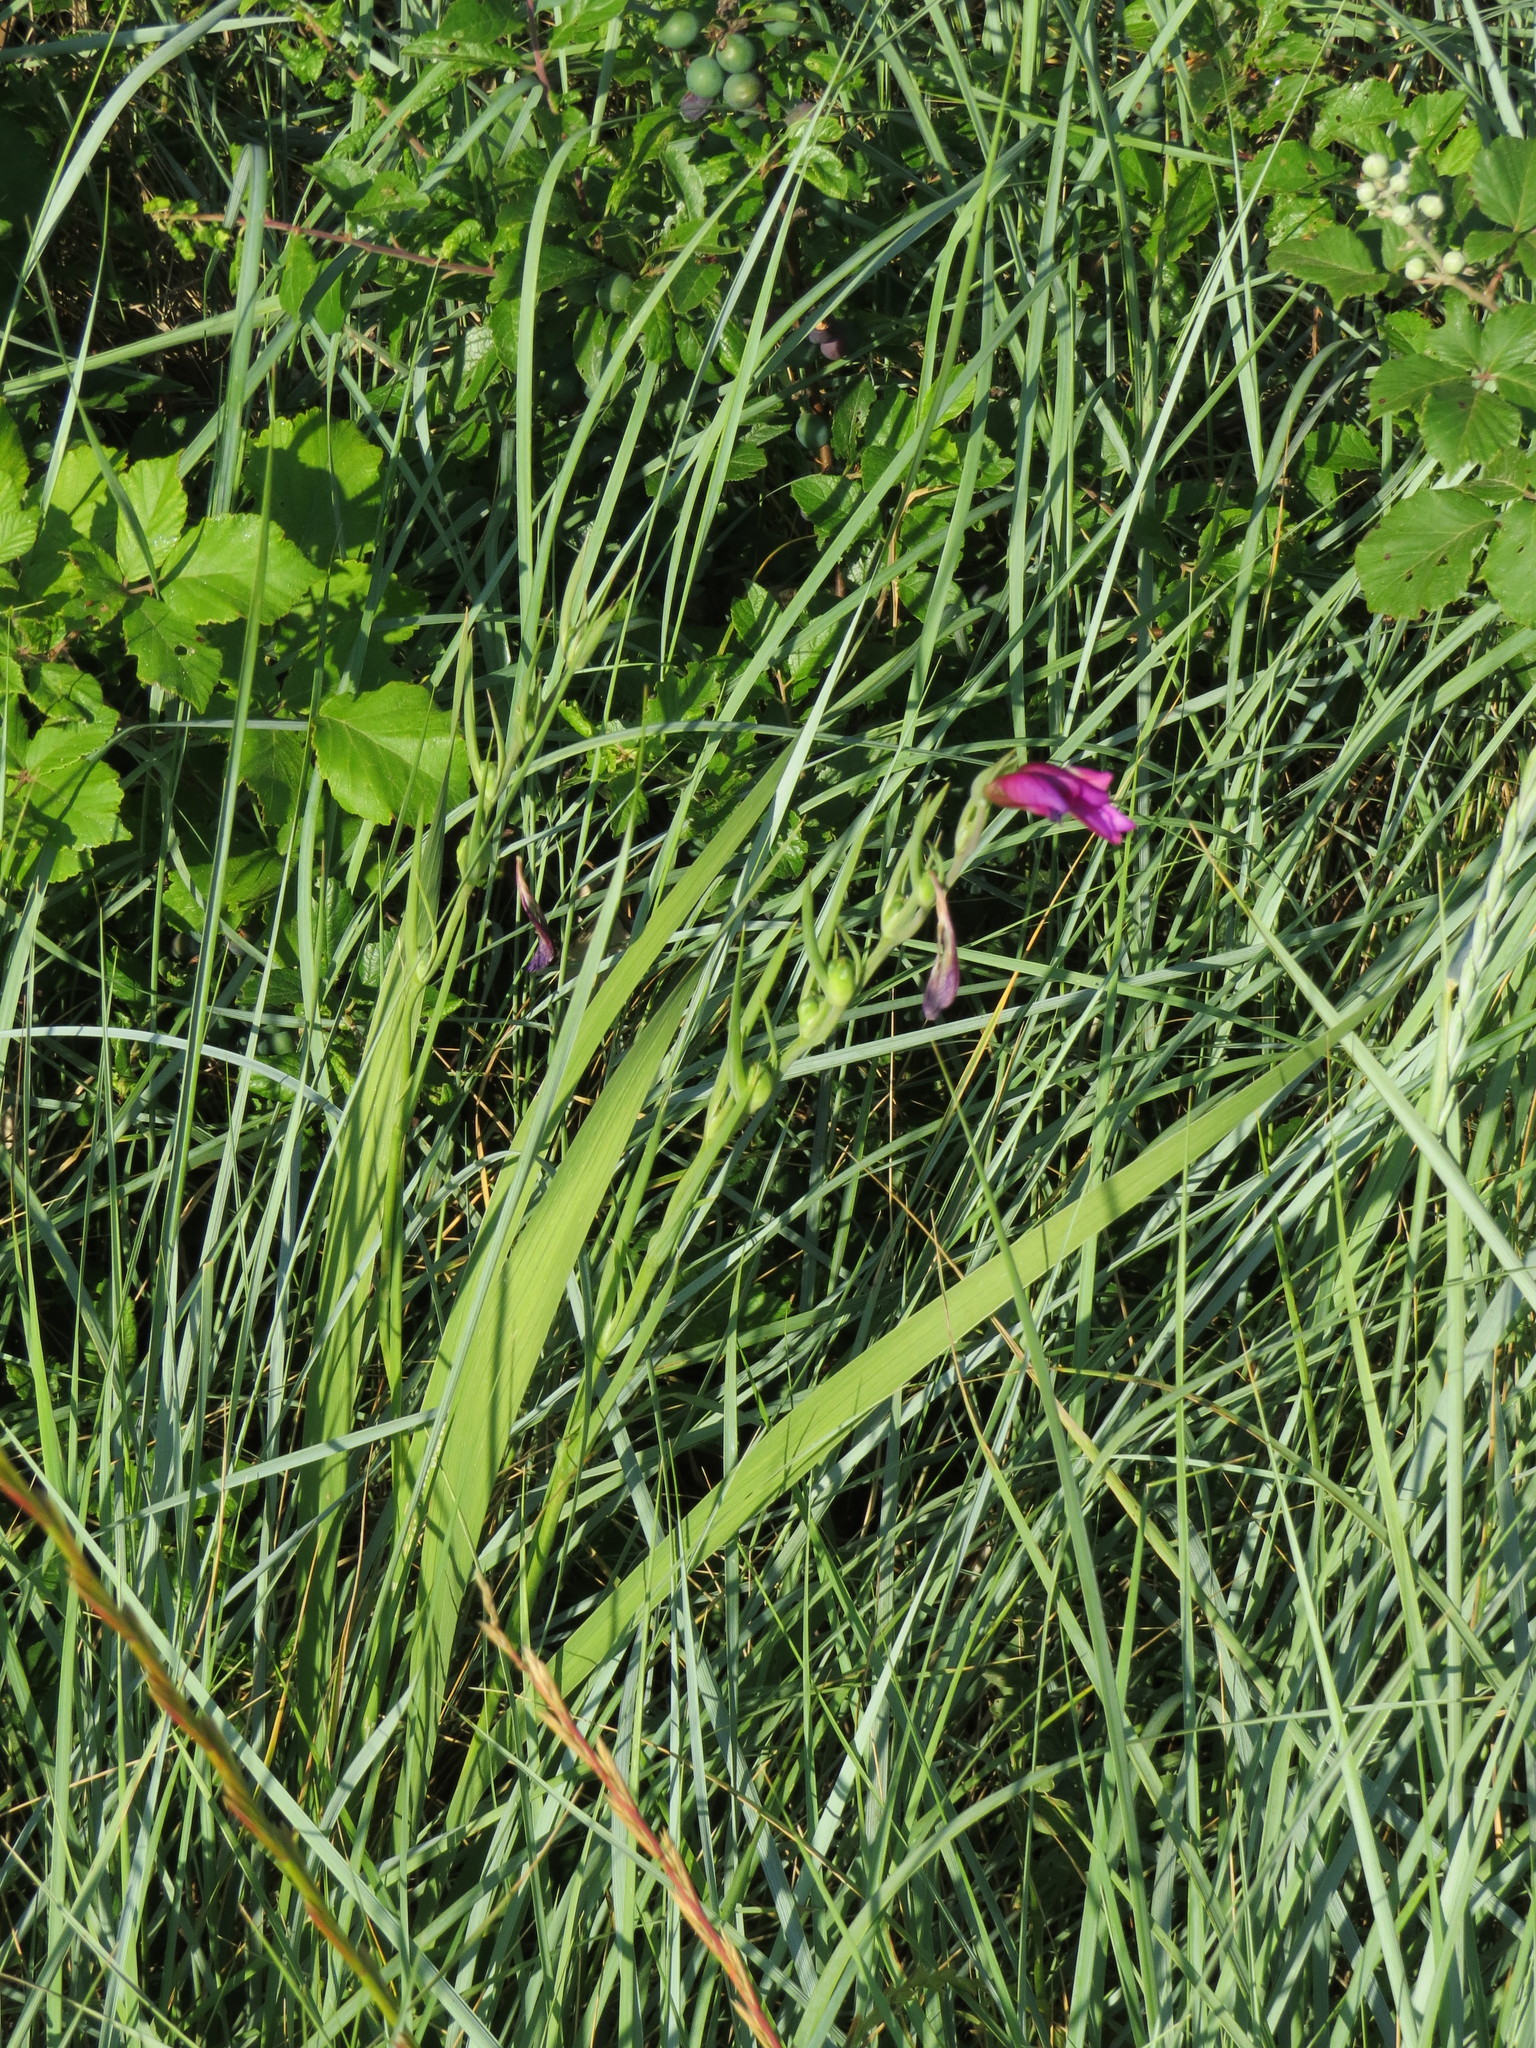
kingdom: Plantae
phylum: Tracheophyta
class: Liliopsida
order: Asparagales
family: Iridaceae
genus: Gladiolus
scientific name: Gladiolus italicus
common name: Field gladiolus
